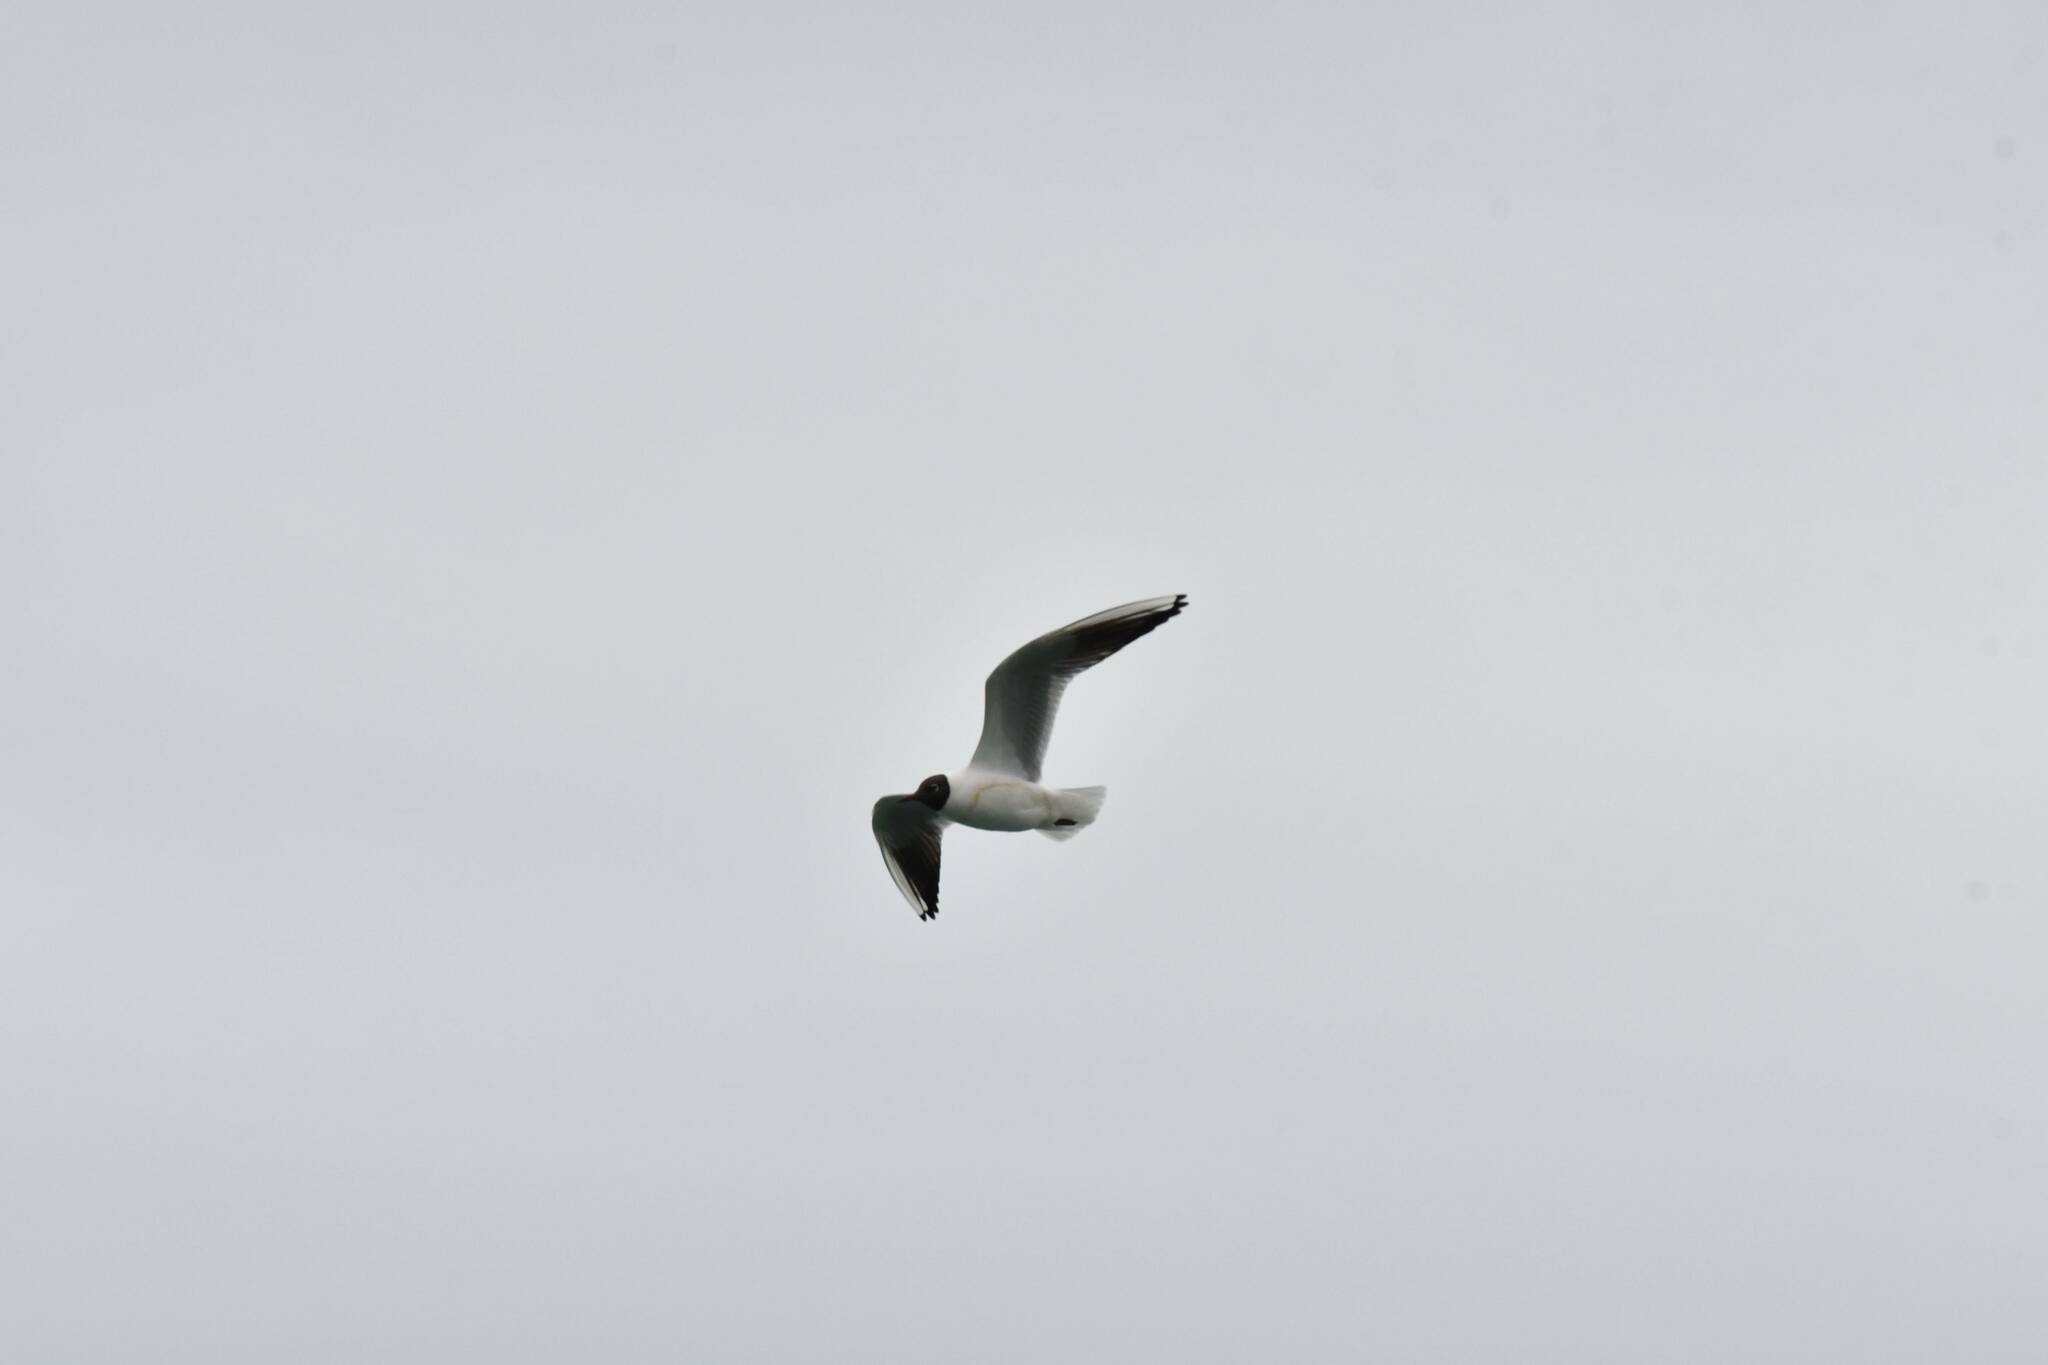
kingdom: Animalia
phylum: Chordata
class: Aves
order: Charadriiformes
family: Laridae
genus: Chroicocephalus
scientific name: Chroicocephalus ridibundus
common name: Black-headed gull
